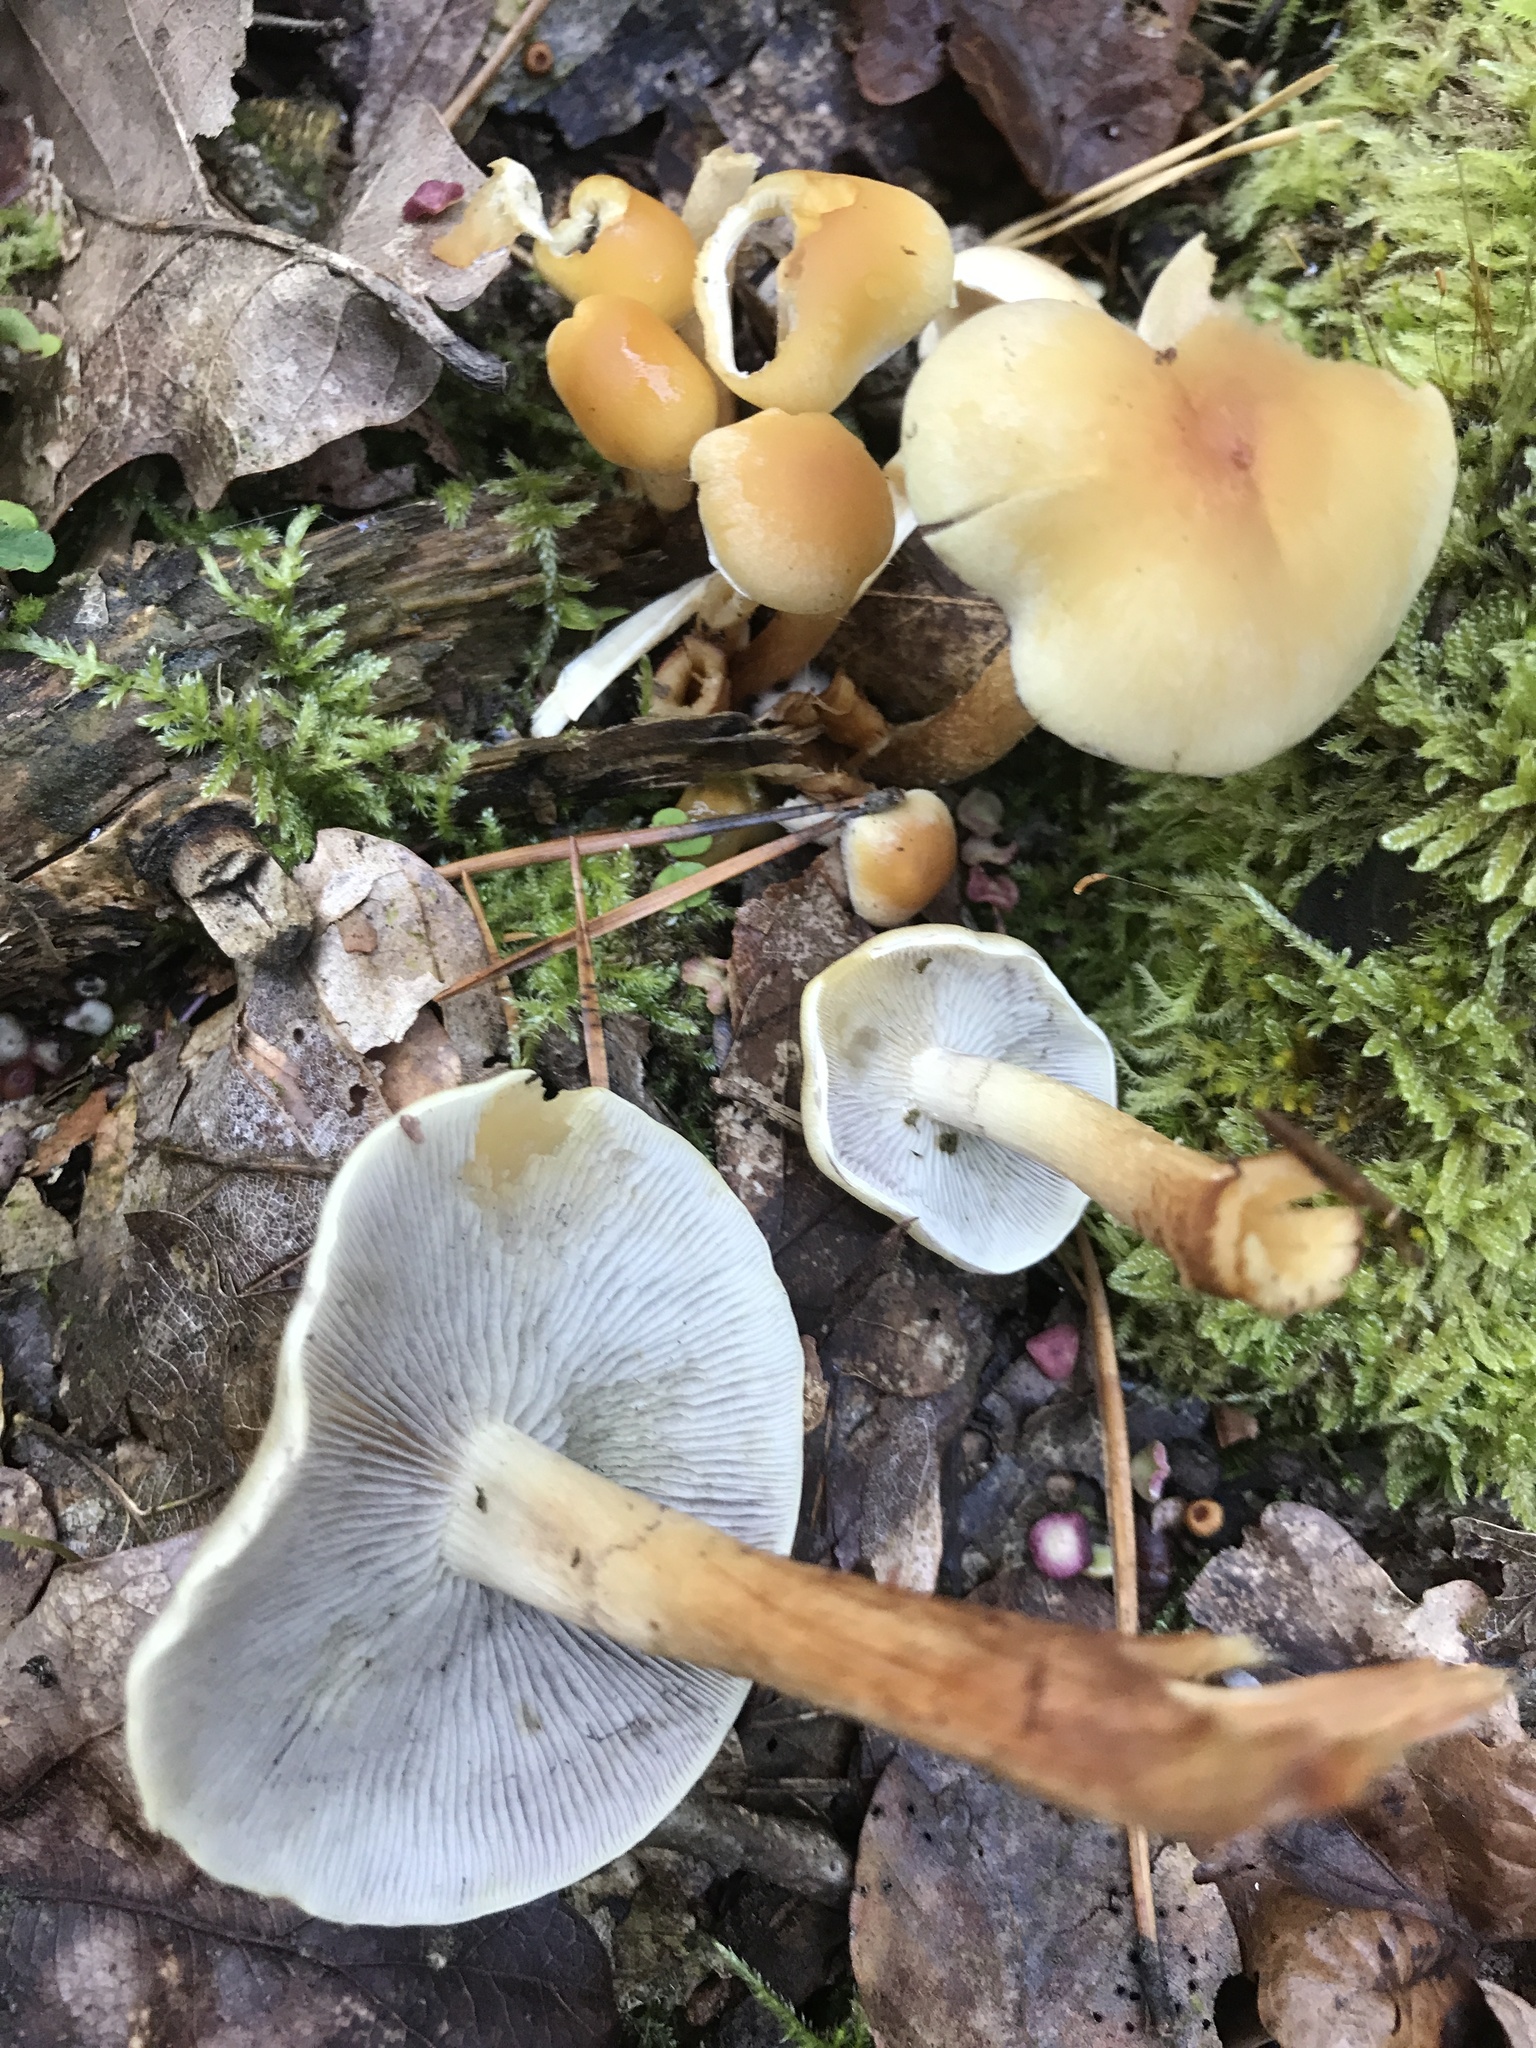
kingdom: Fungi
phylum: Basidiomycota
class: Agaricomycetes
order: Agaricales
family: Strophariaceae
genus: Hypholoma
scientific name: Hypholoma capnoides
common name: Conifer tuft
